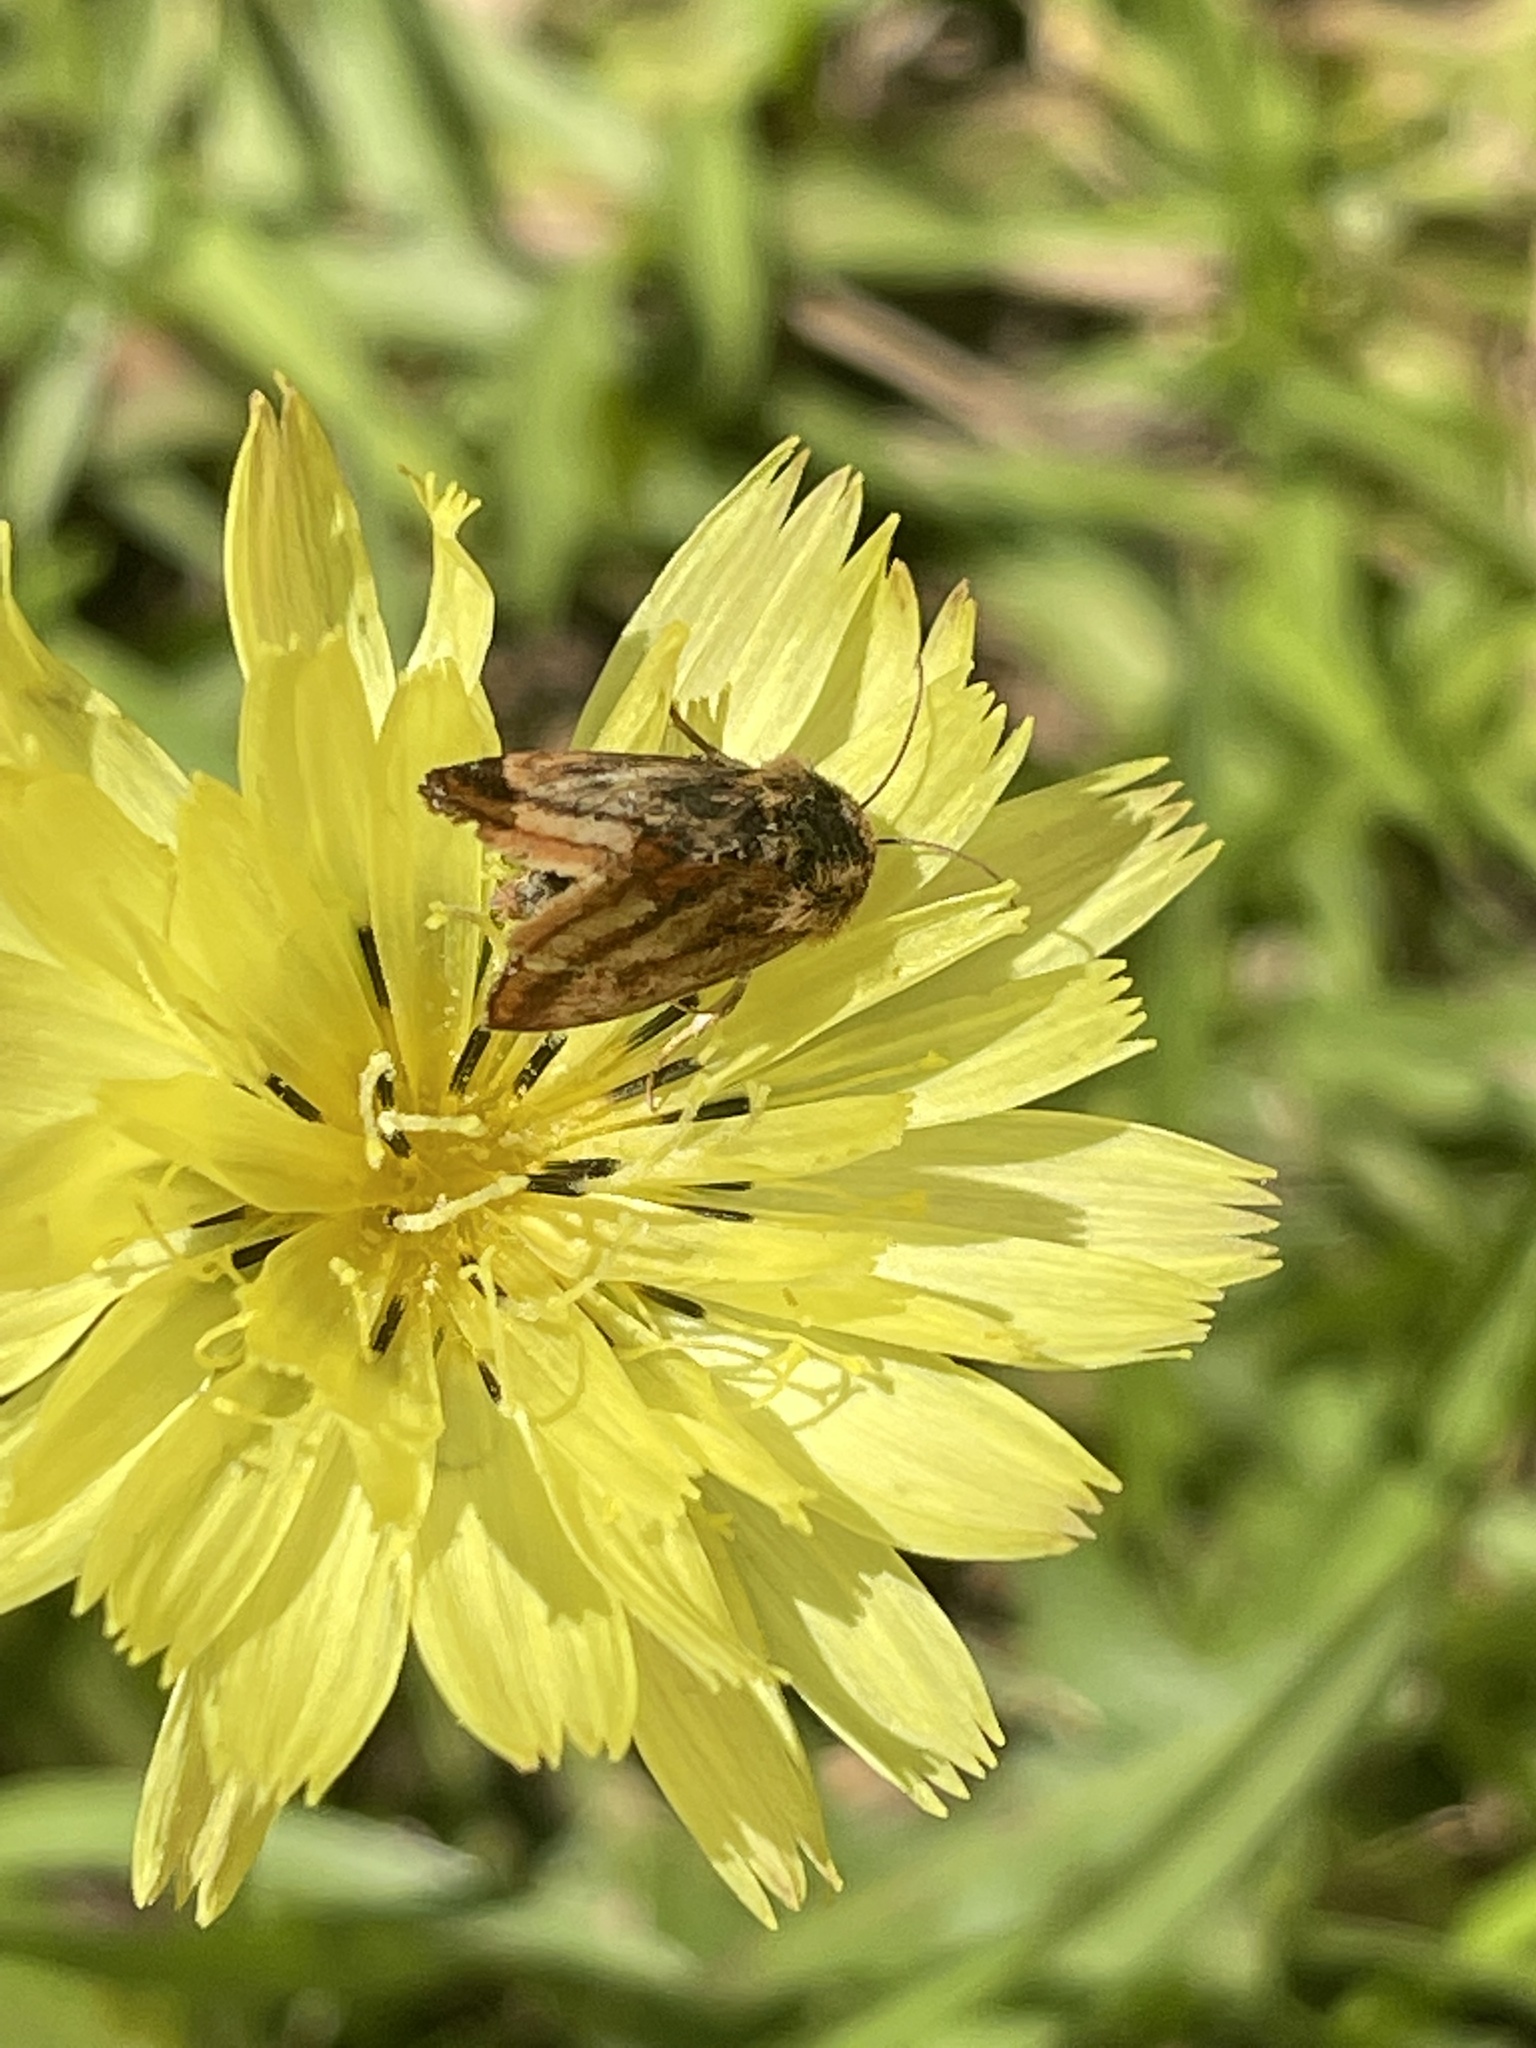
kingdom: Animalia
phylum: Arthropoda
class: Insecta
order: Lepidoptera
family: Noctuidae
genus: Schinia
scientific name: Schinia mitis
